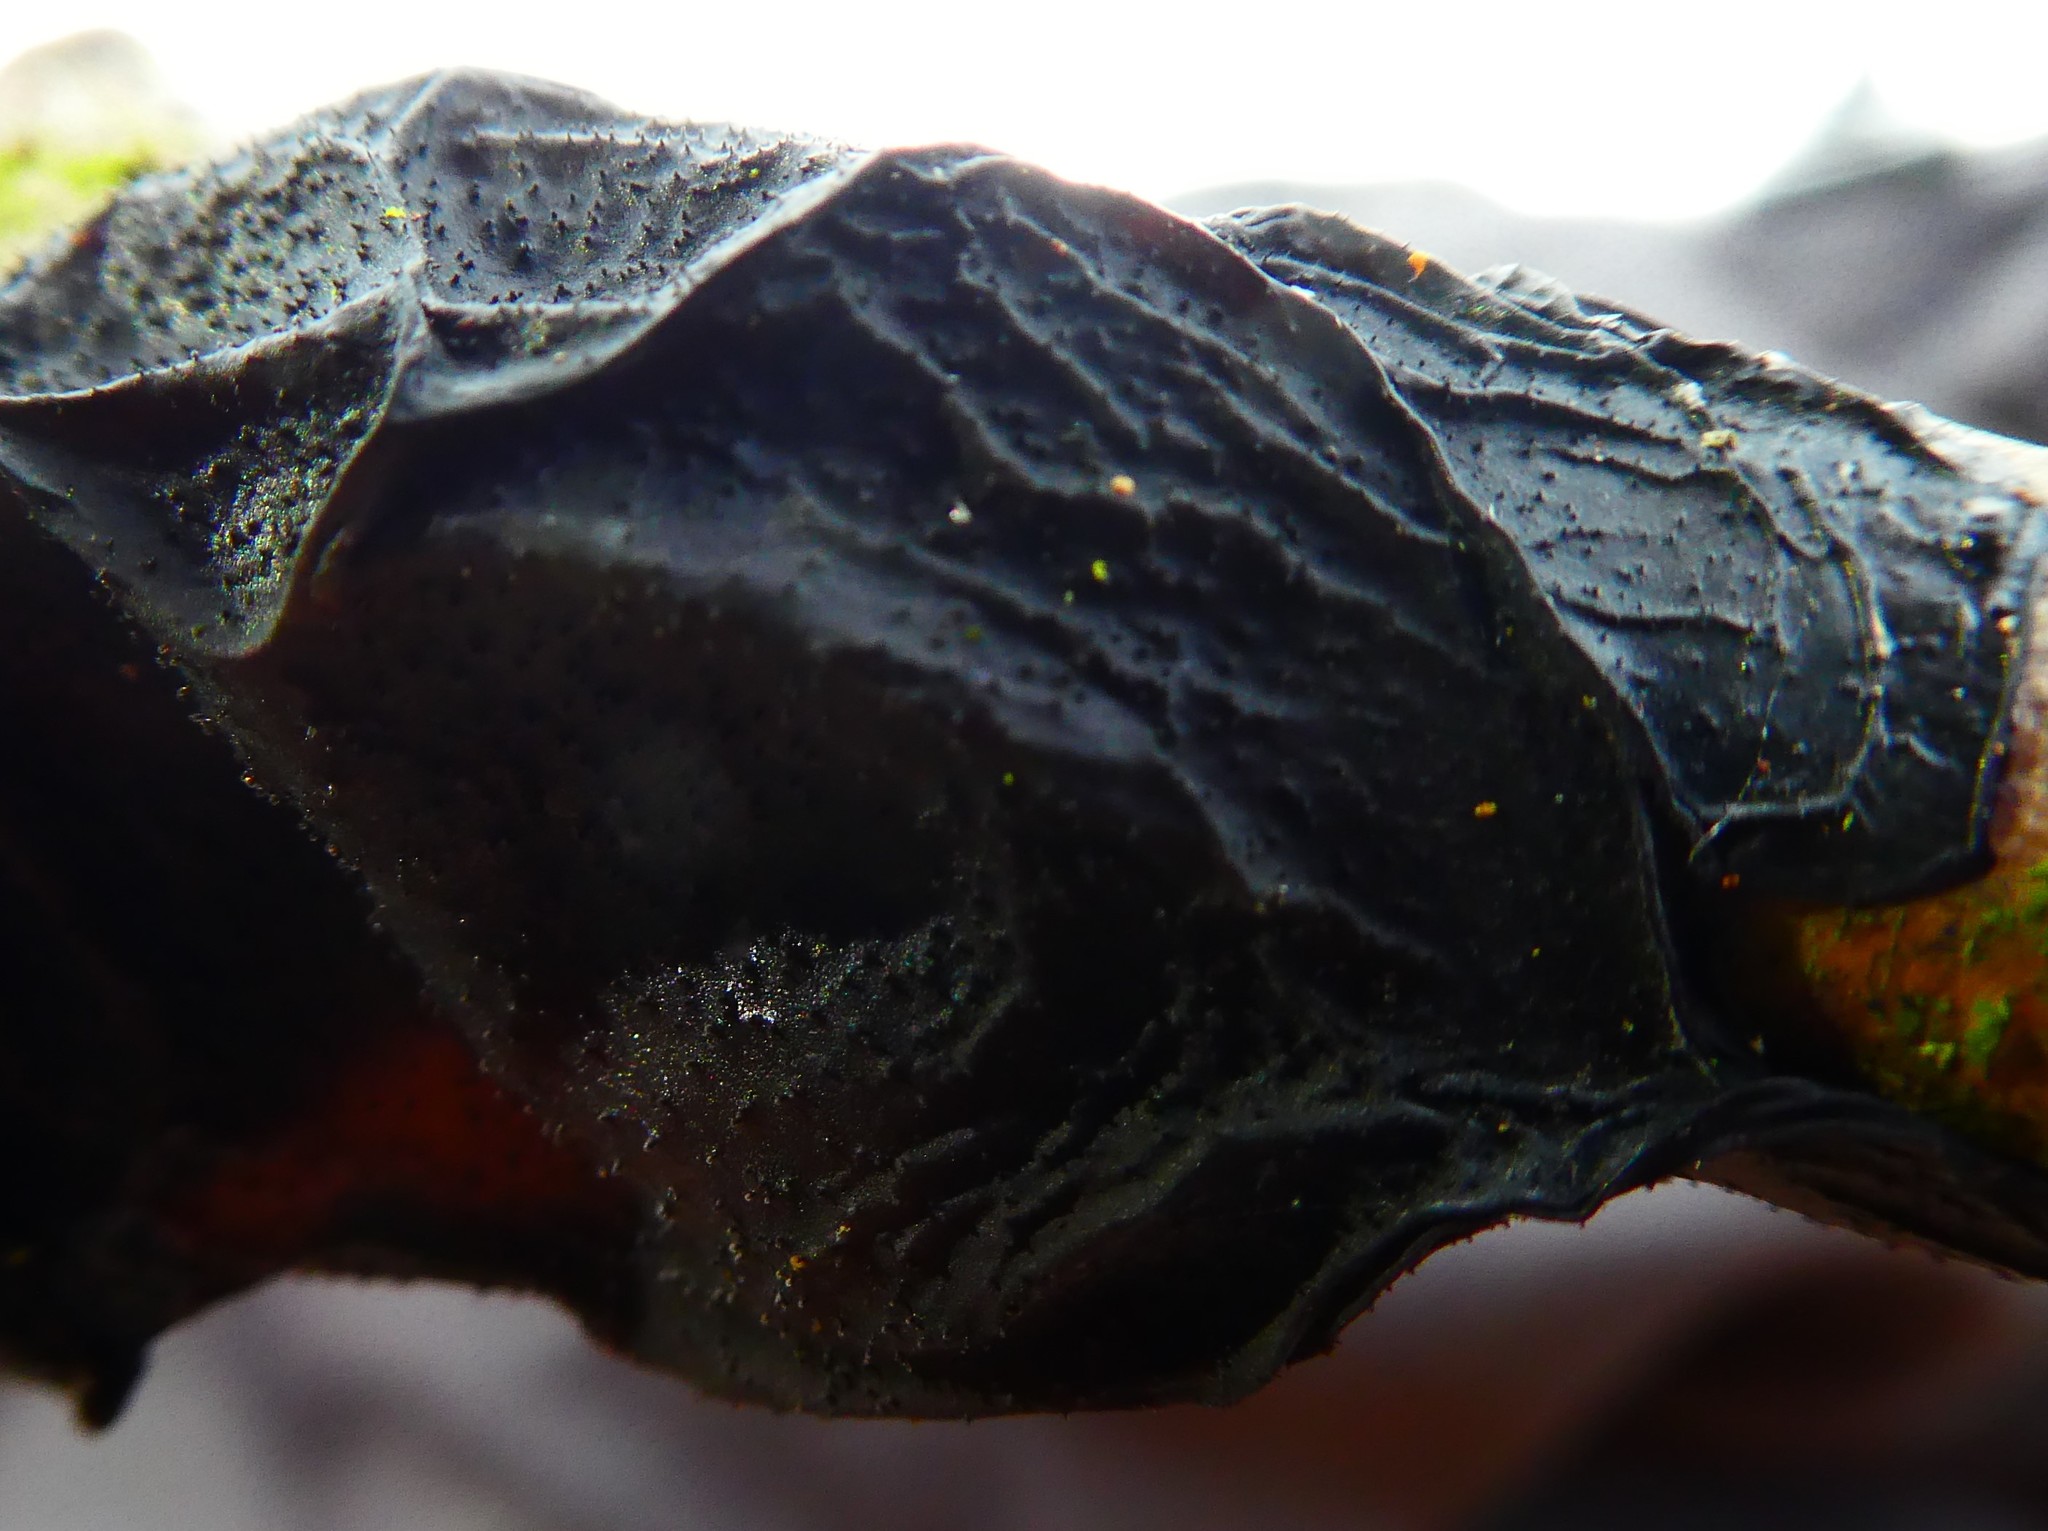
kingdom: Fungi
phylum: Basidiomycota
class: Agaricomycetes
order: Auriculariales
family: Auriculariaceae
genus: Exidia
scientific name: Exidia glandulosa
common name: Witches' butter
